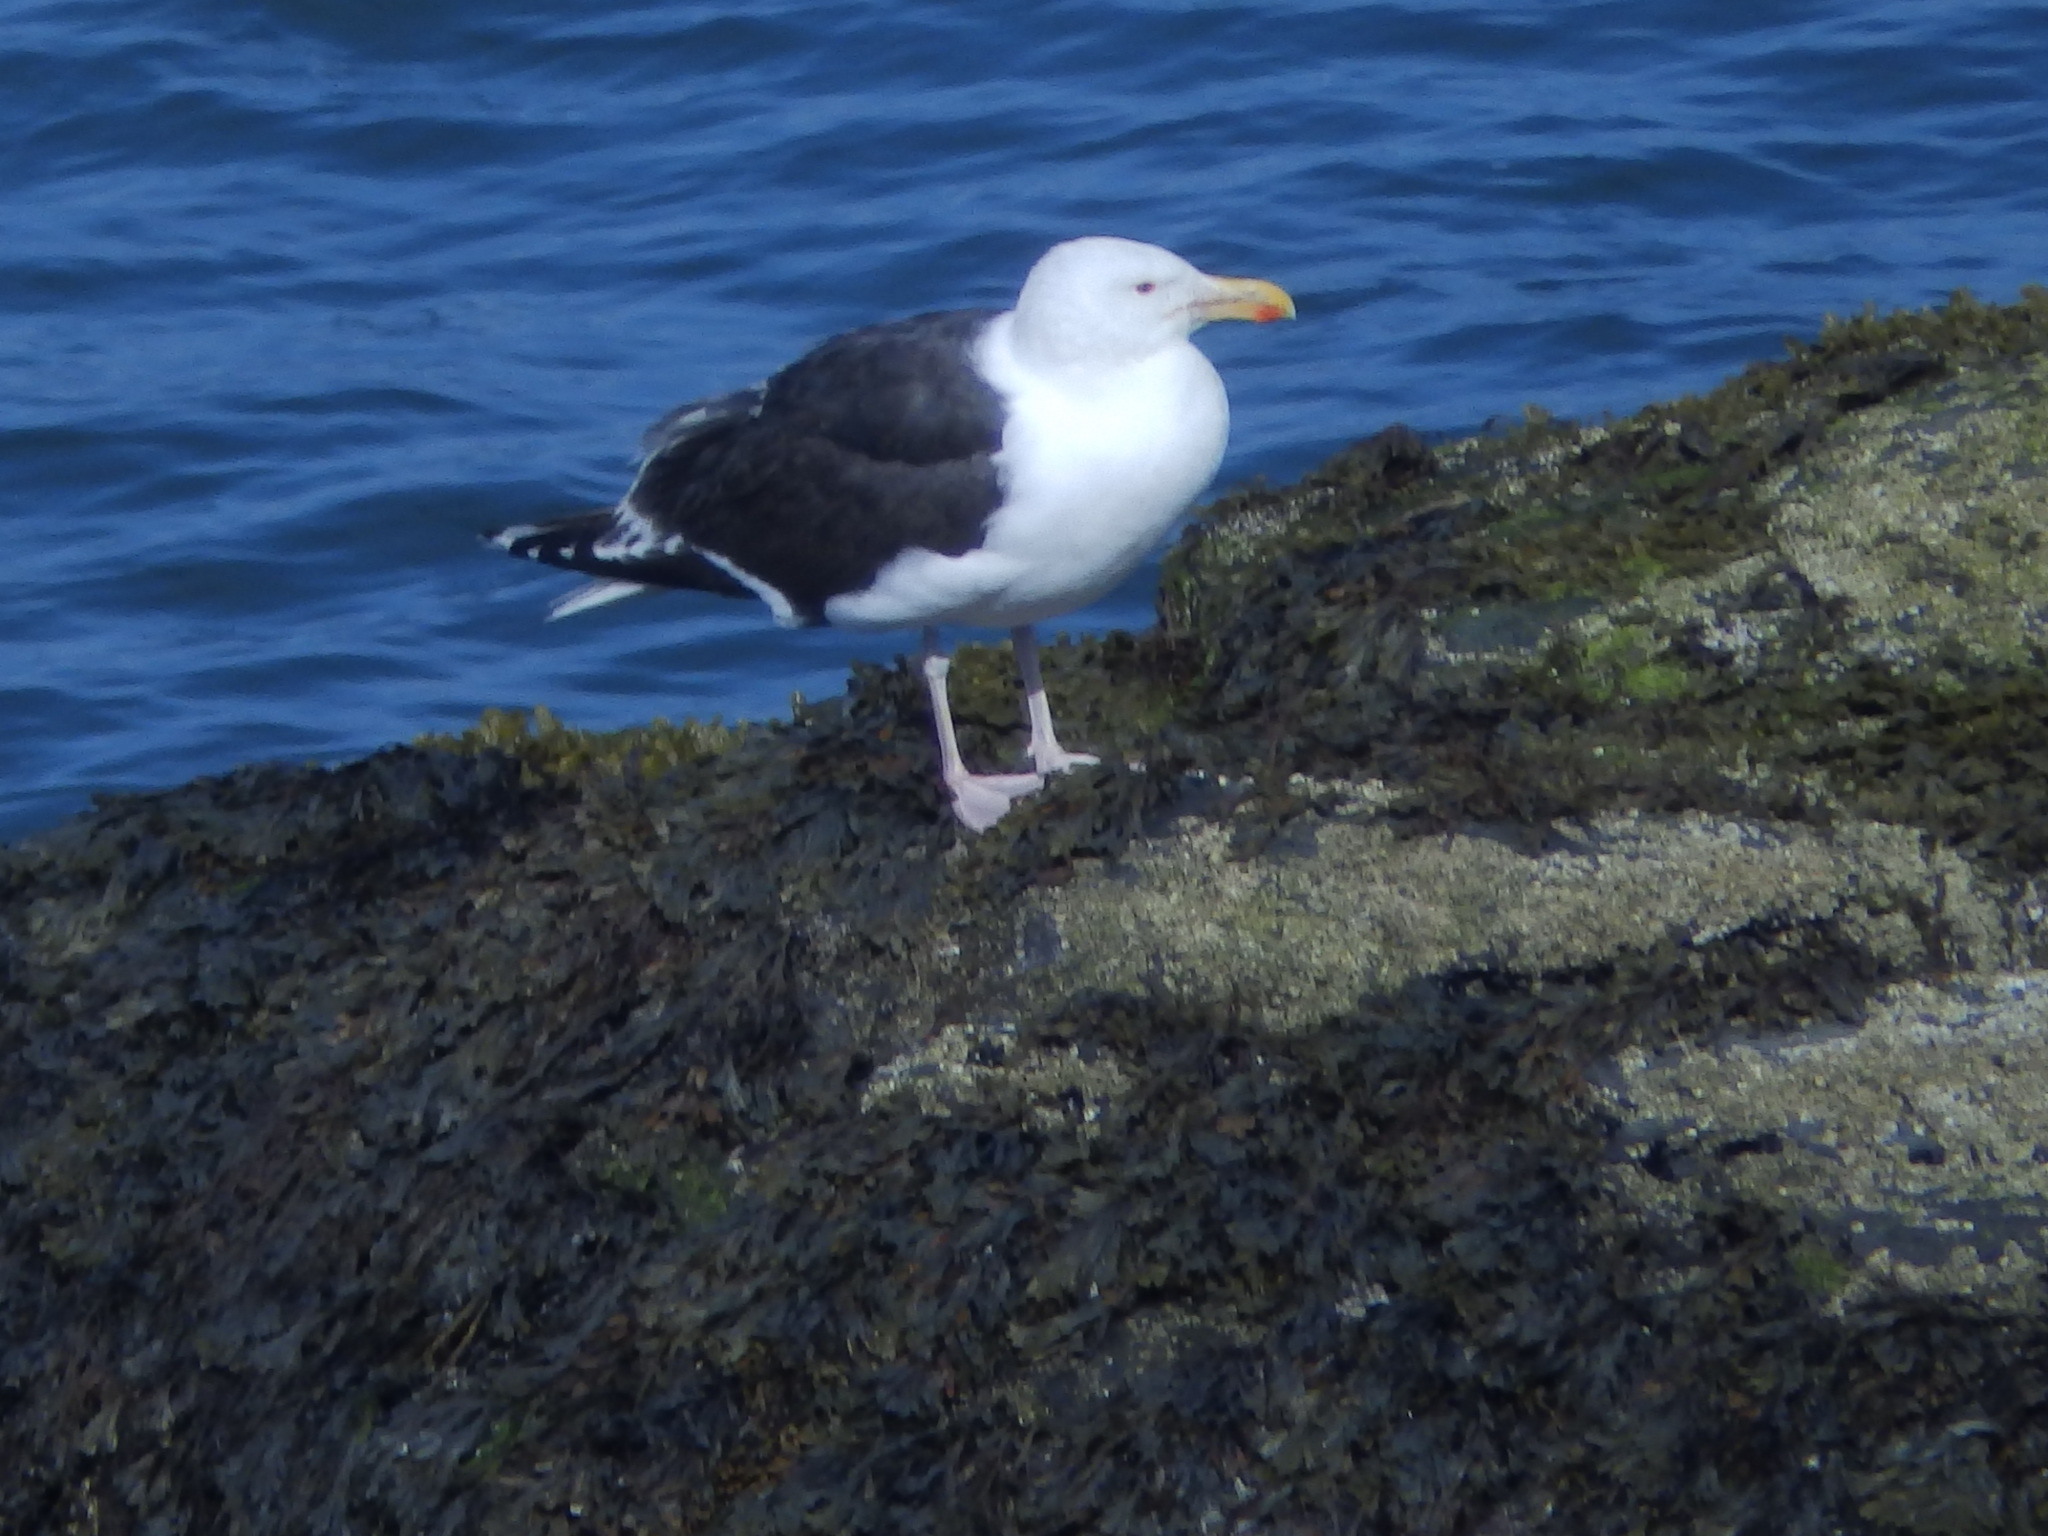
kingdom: Animalia
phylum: Chordata
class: Aves
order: Charadriiformes
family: Laridae
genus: Larus
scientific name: Larus marinus
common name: Great black-backed gull
